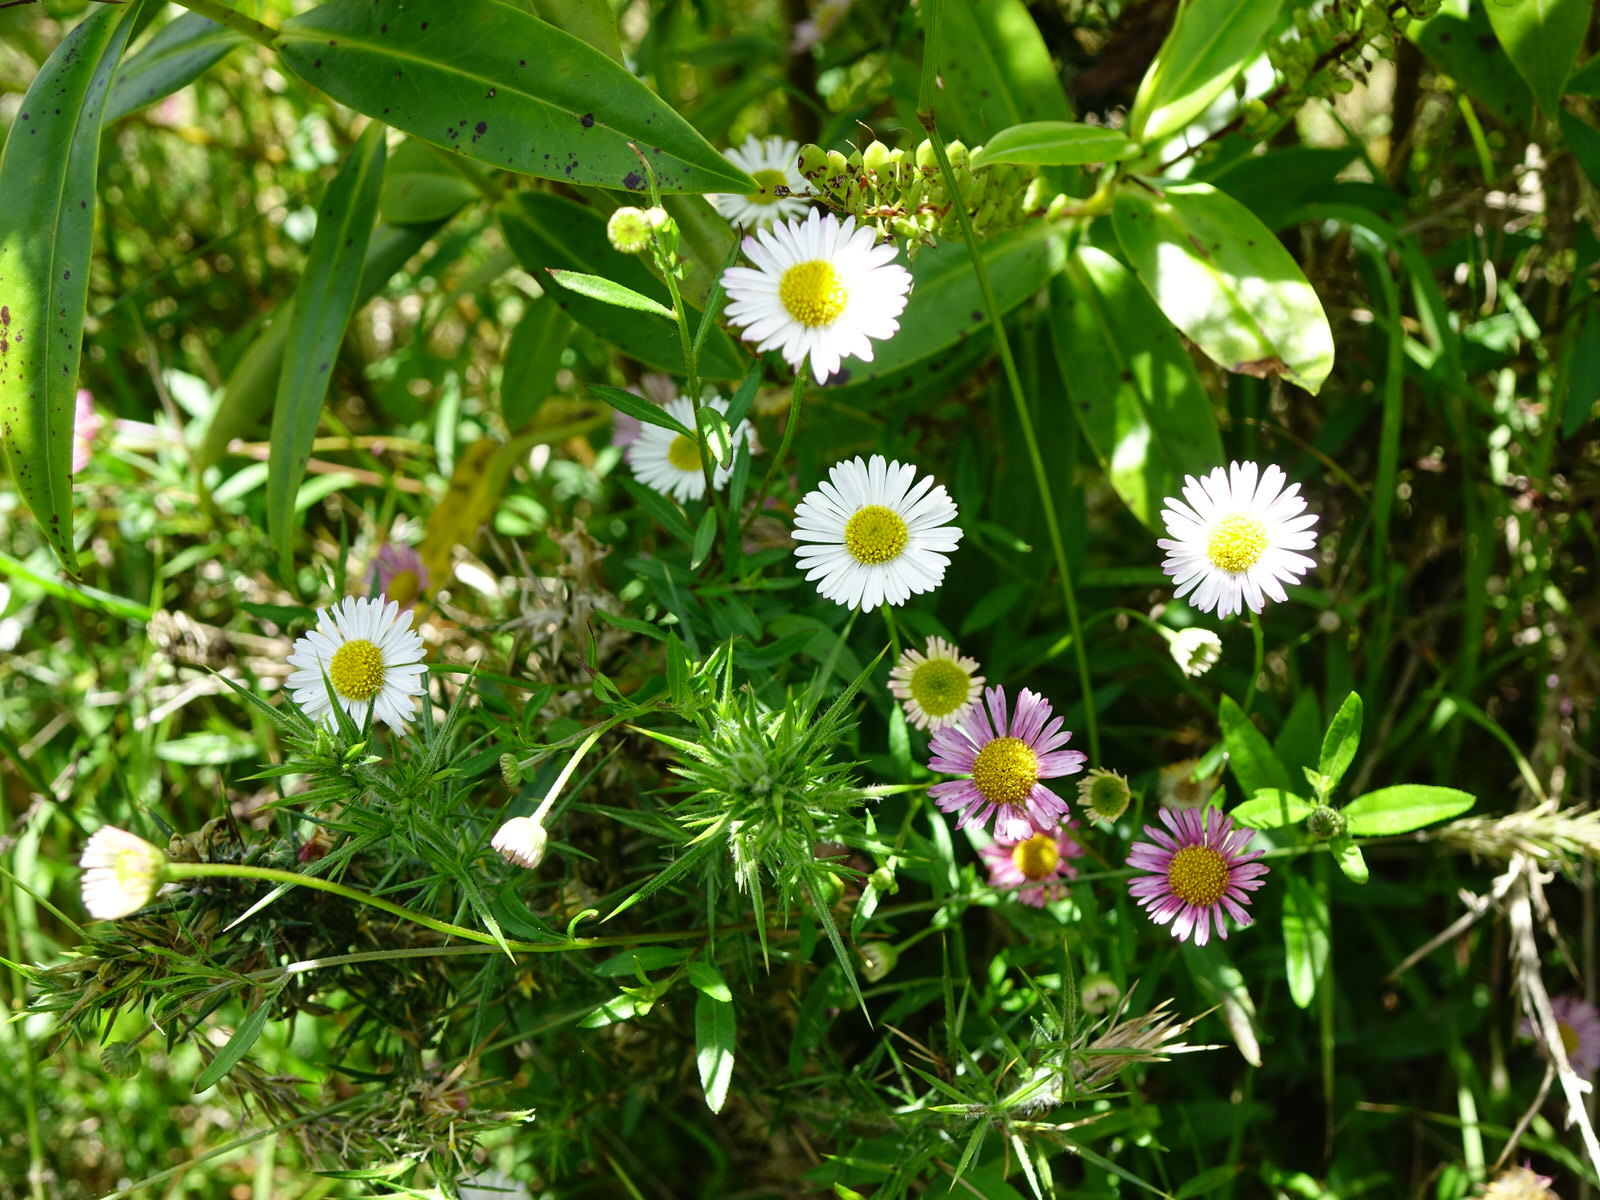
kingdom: Plantae
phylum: Tracheophyta
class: Magnoliopsida
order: Asterales
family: Asteraceae
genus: Erigeron
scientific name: Erigeron karvinskianus
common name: Mexican fleabane
